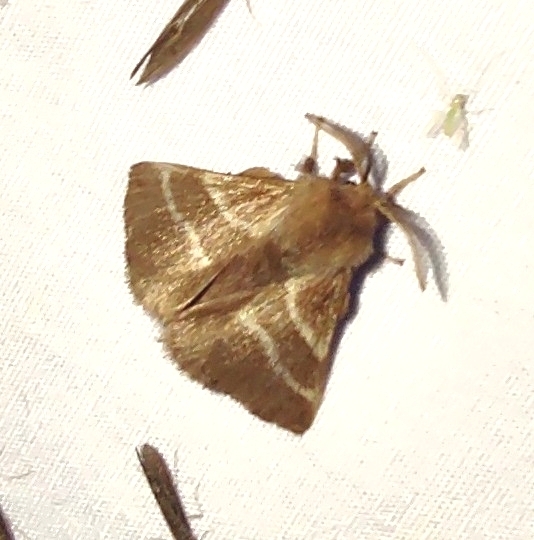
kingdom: Animalia
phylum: Arthropoda
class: Insecta
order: Lepidoptera
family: Lasiocampidae
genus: Malacosoma
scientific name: Malacosoma americana
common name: Eastern tent caterpillar moth
